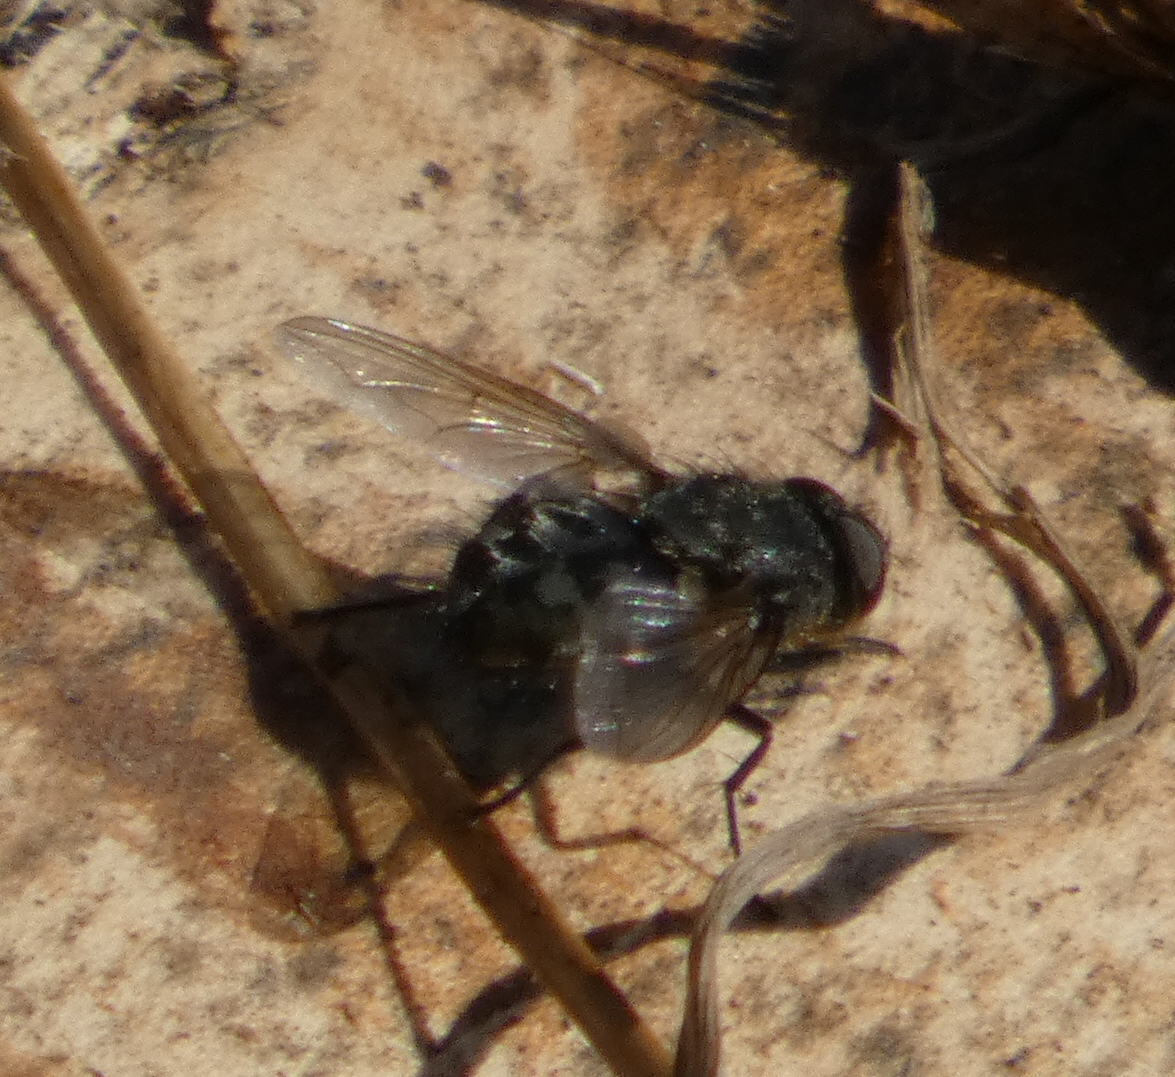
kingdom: Animalia
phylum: Arthropoda
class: Insecta
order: Diptera
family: Polleniidae
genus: Pollenia
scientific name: Pollenia
